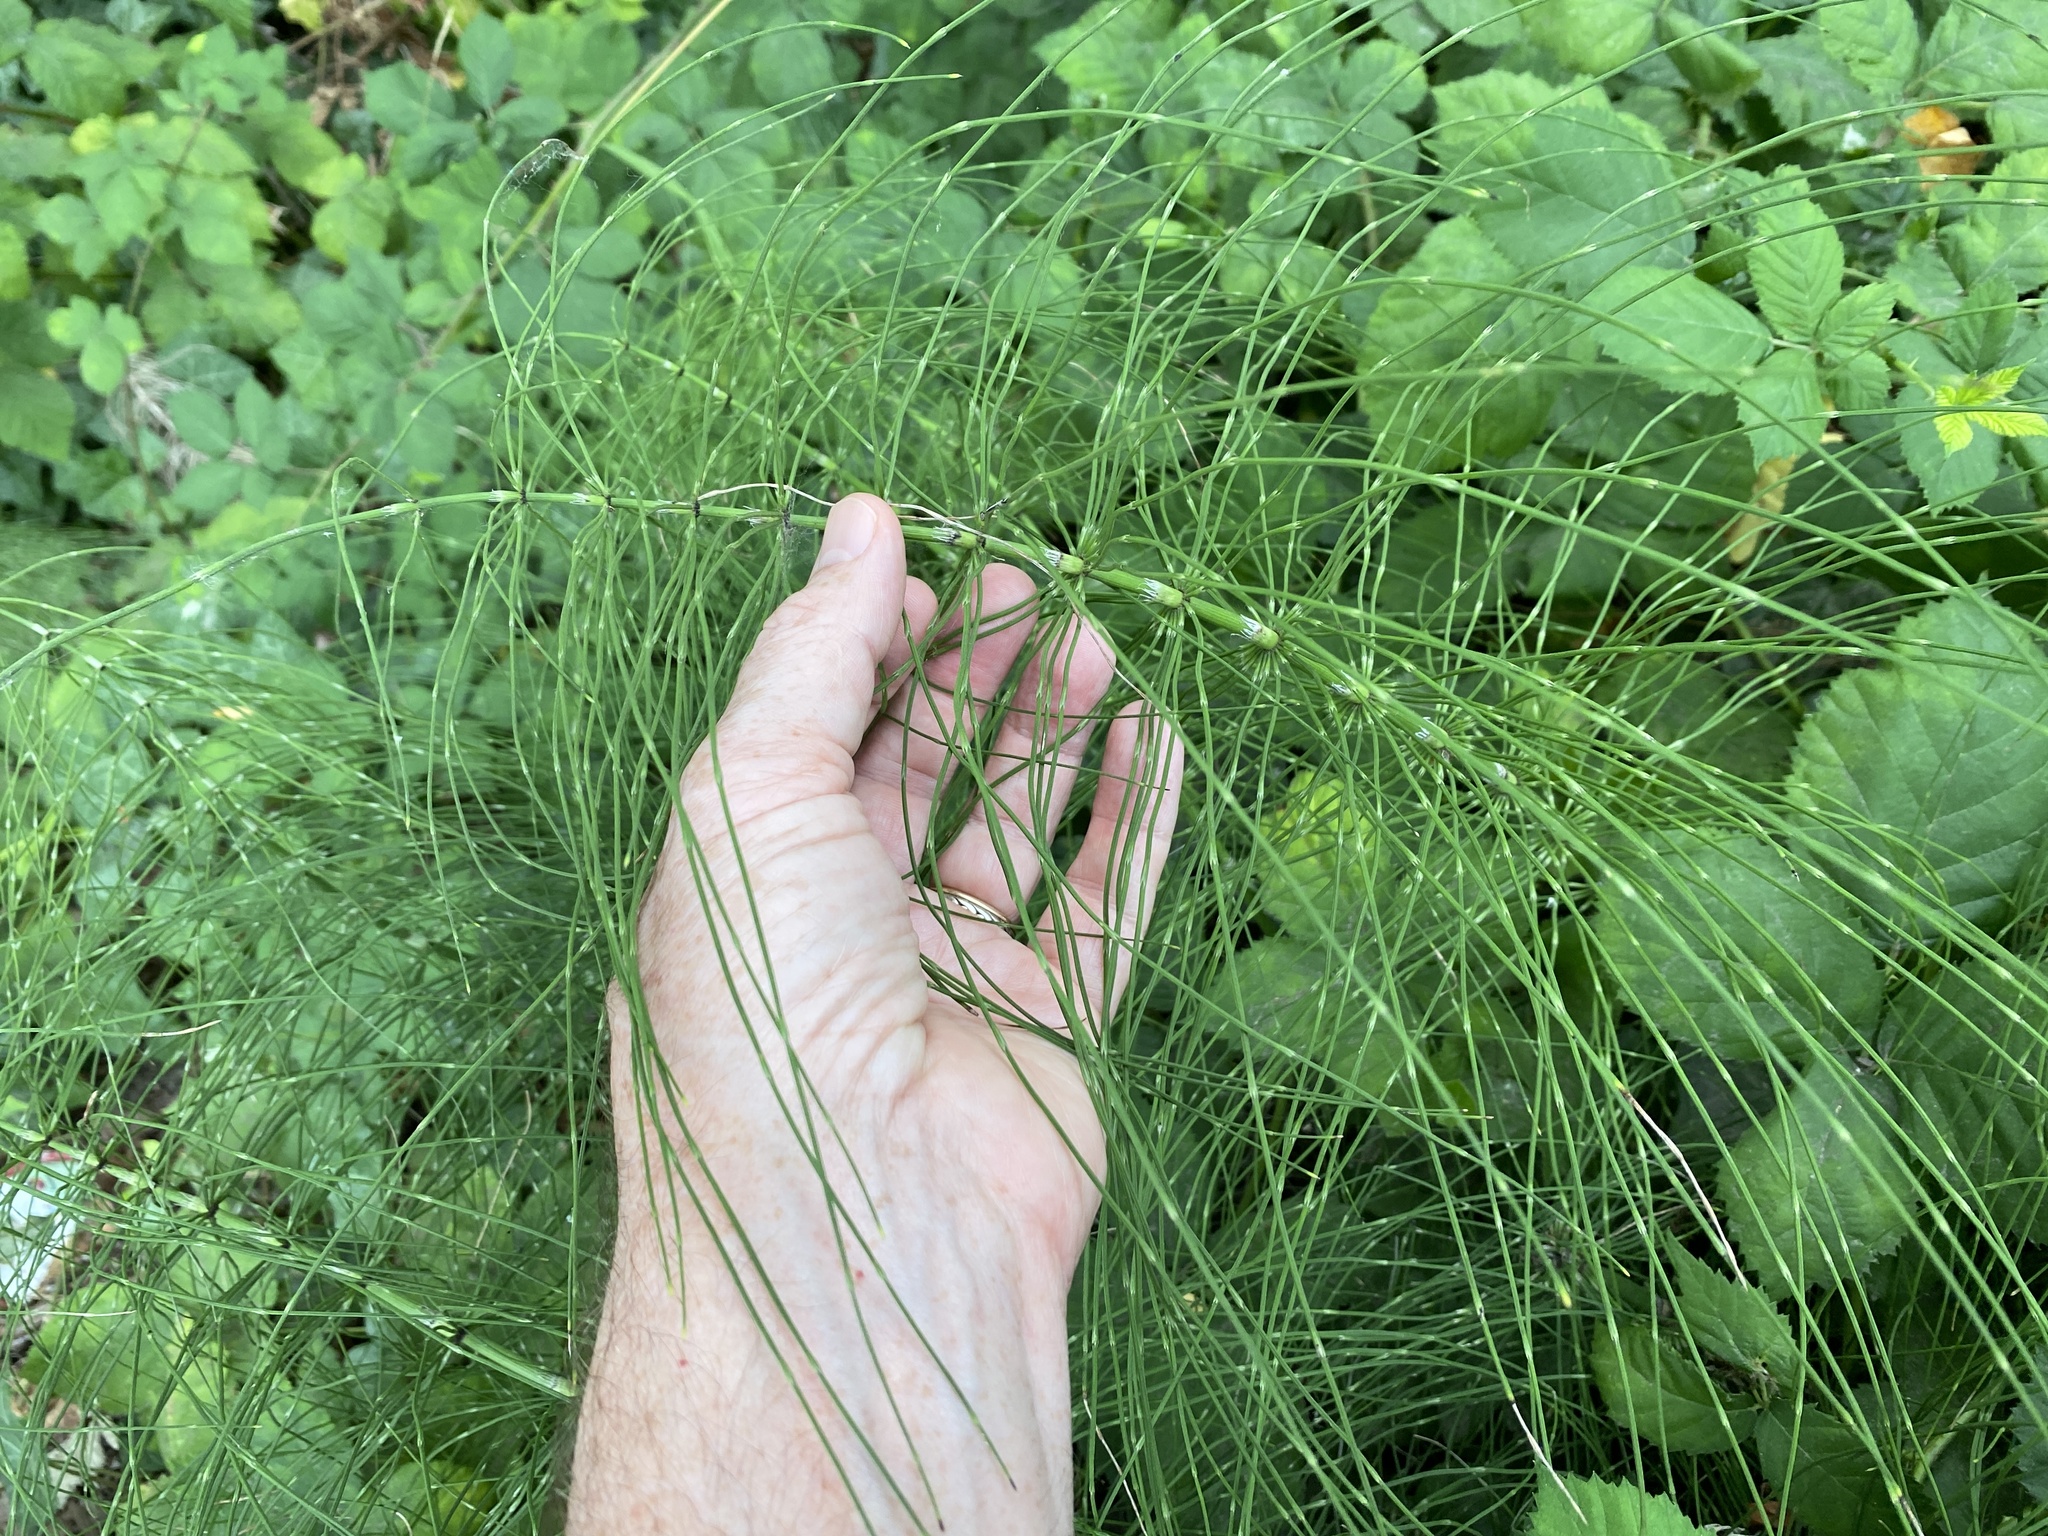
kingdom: Plantae
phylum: Tracheophyta
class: Polypodiopsida
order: Equisetales
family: Equisetaceae
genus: Equisetum
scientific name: Equisetum braunii
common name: Braun's horsetail
